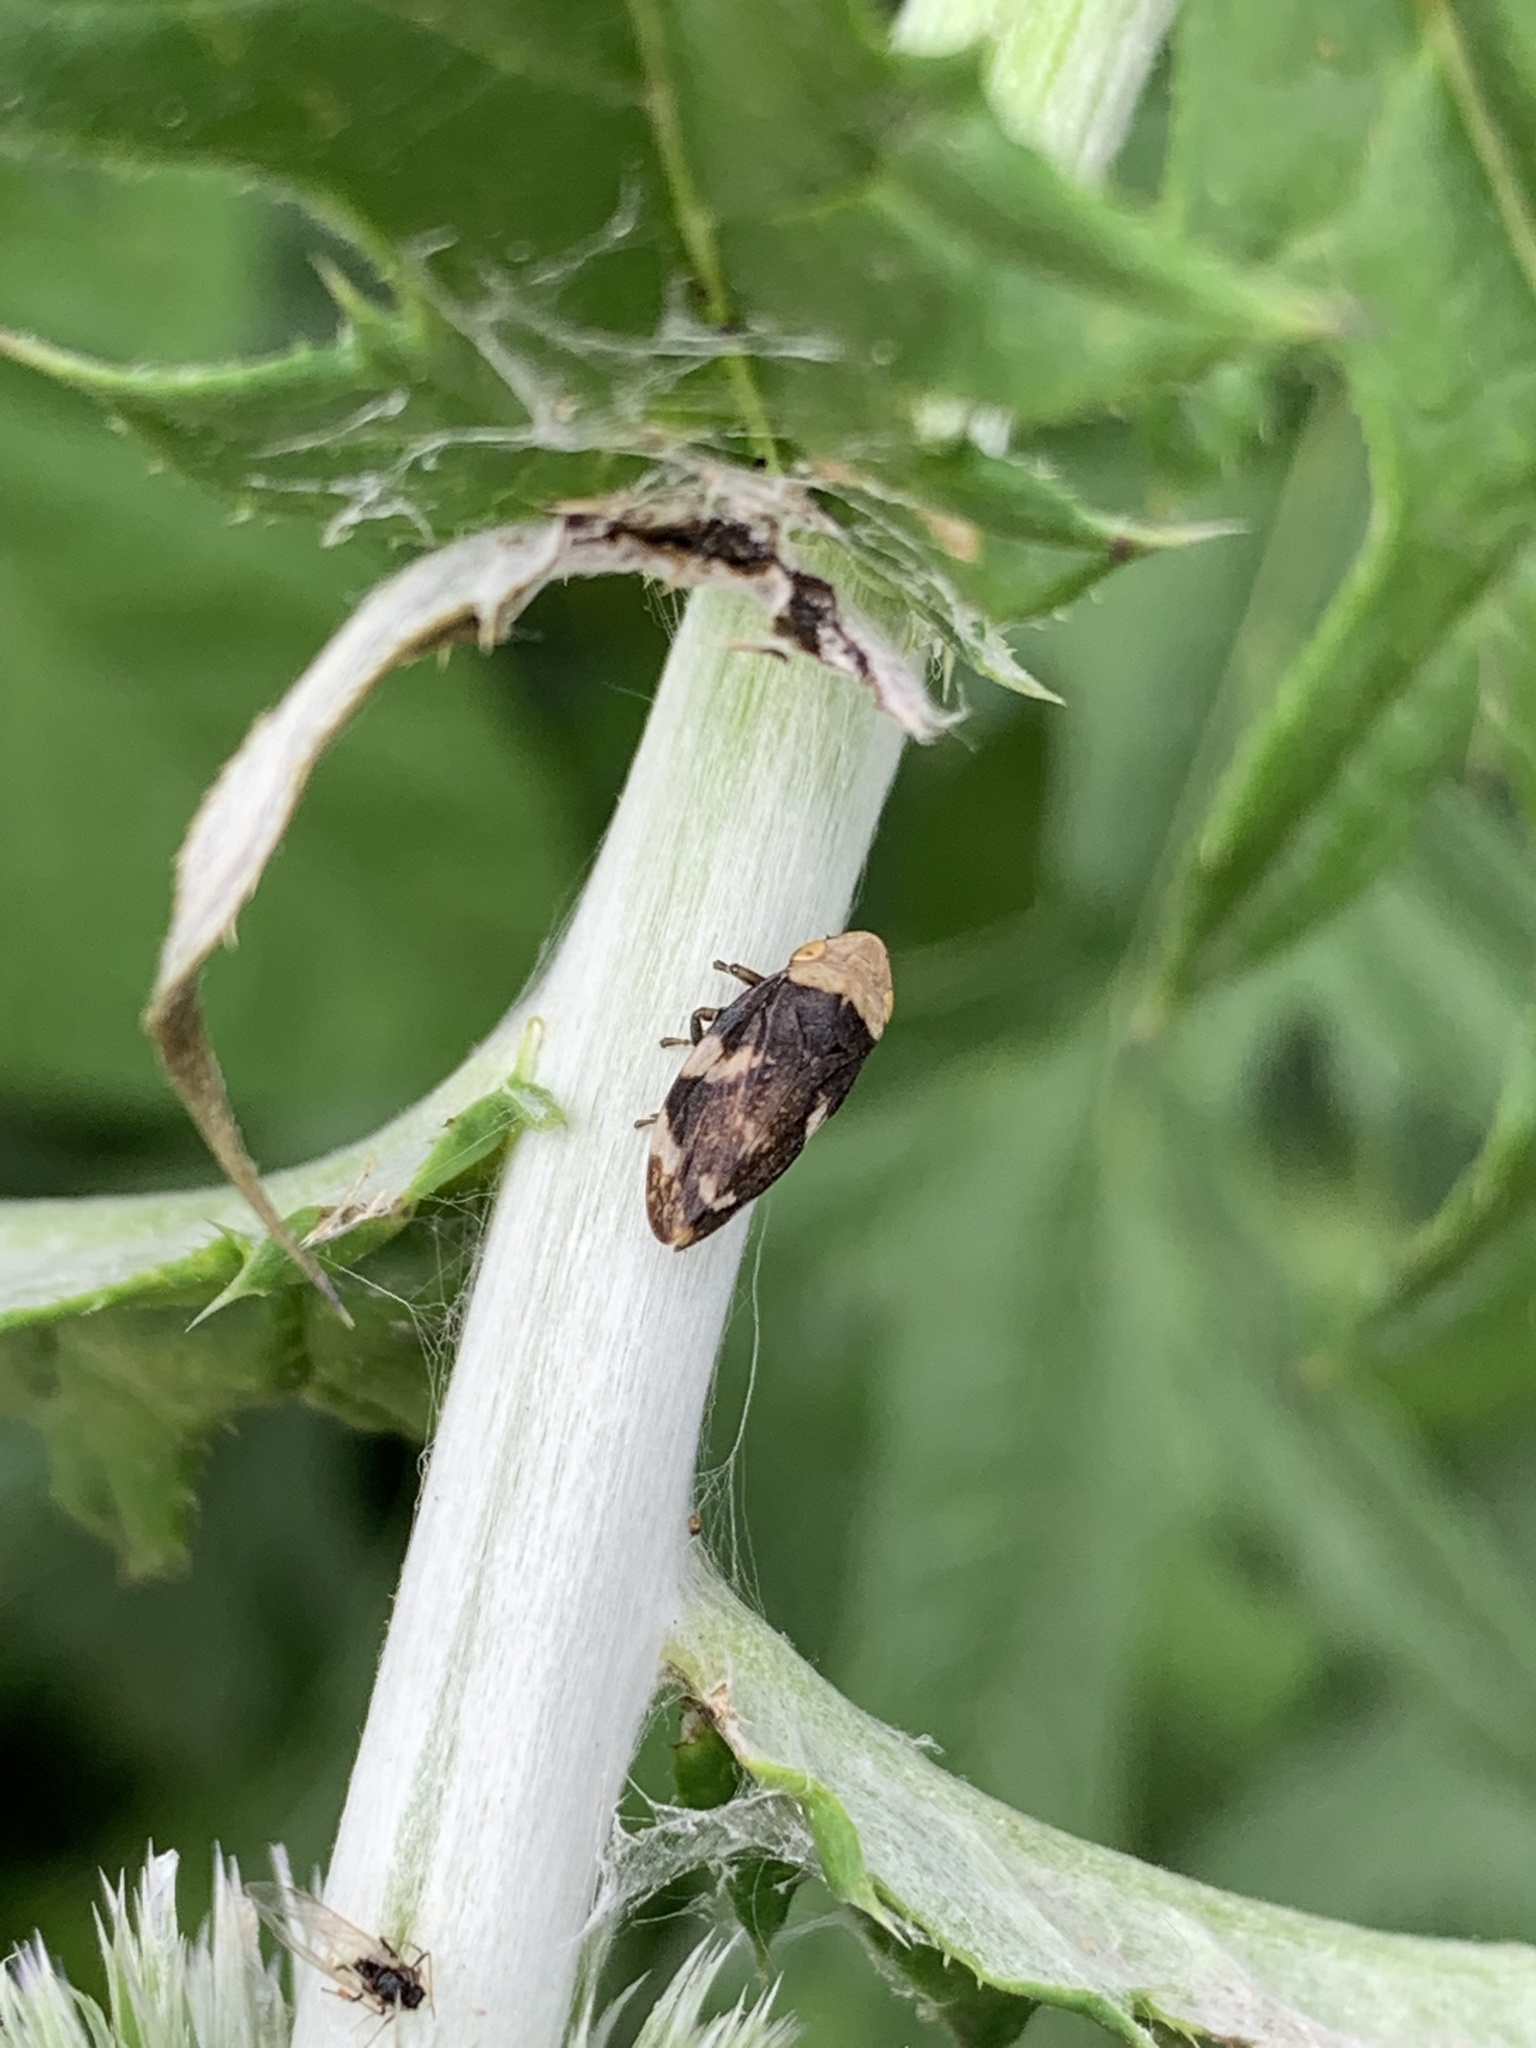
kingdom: Animalia
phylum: Arthropoda
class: Insecta
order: Hemiptera
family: Aphrophoridae
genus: Philaenus
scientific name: Philaenus spumarius
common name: Meadow spittlebug
